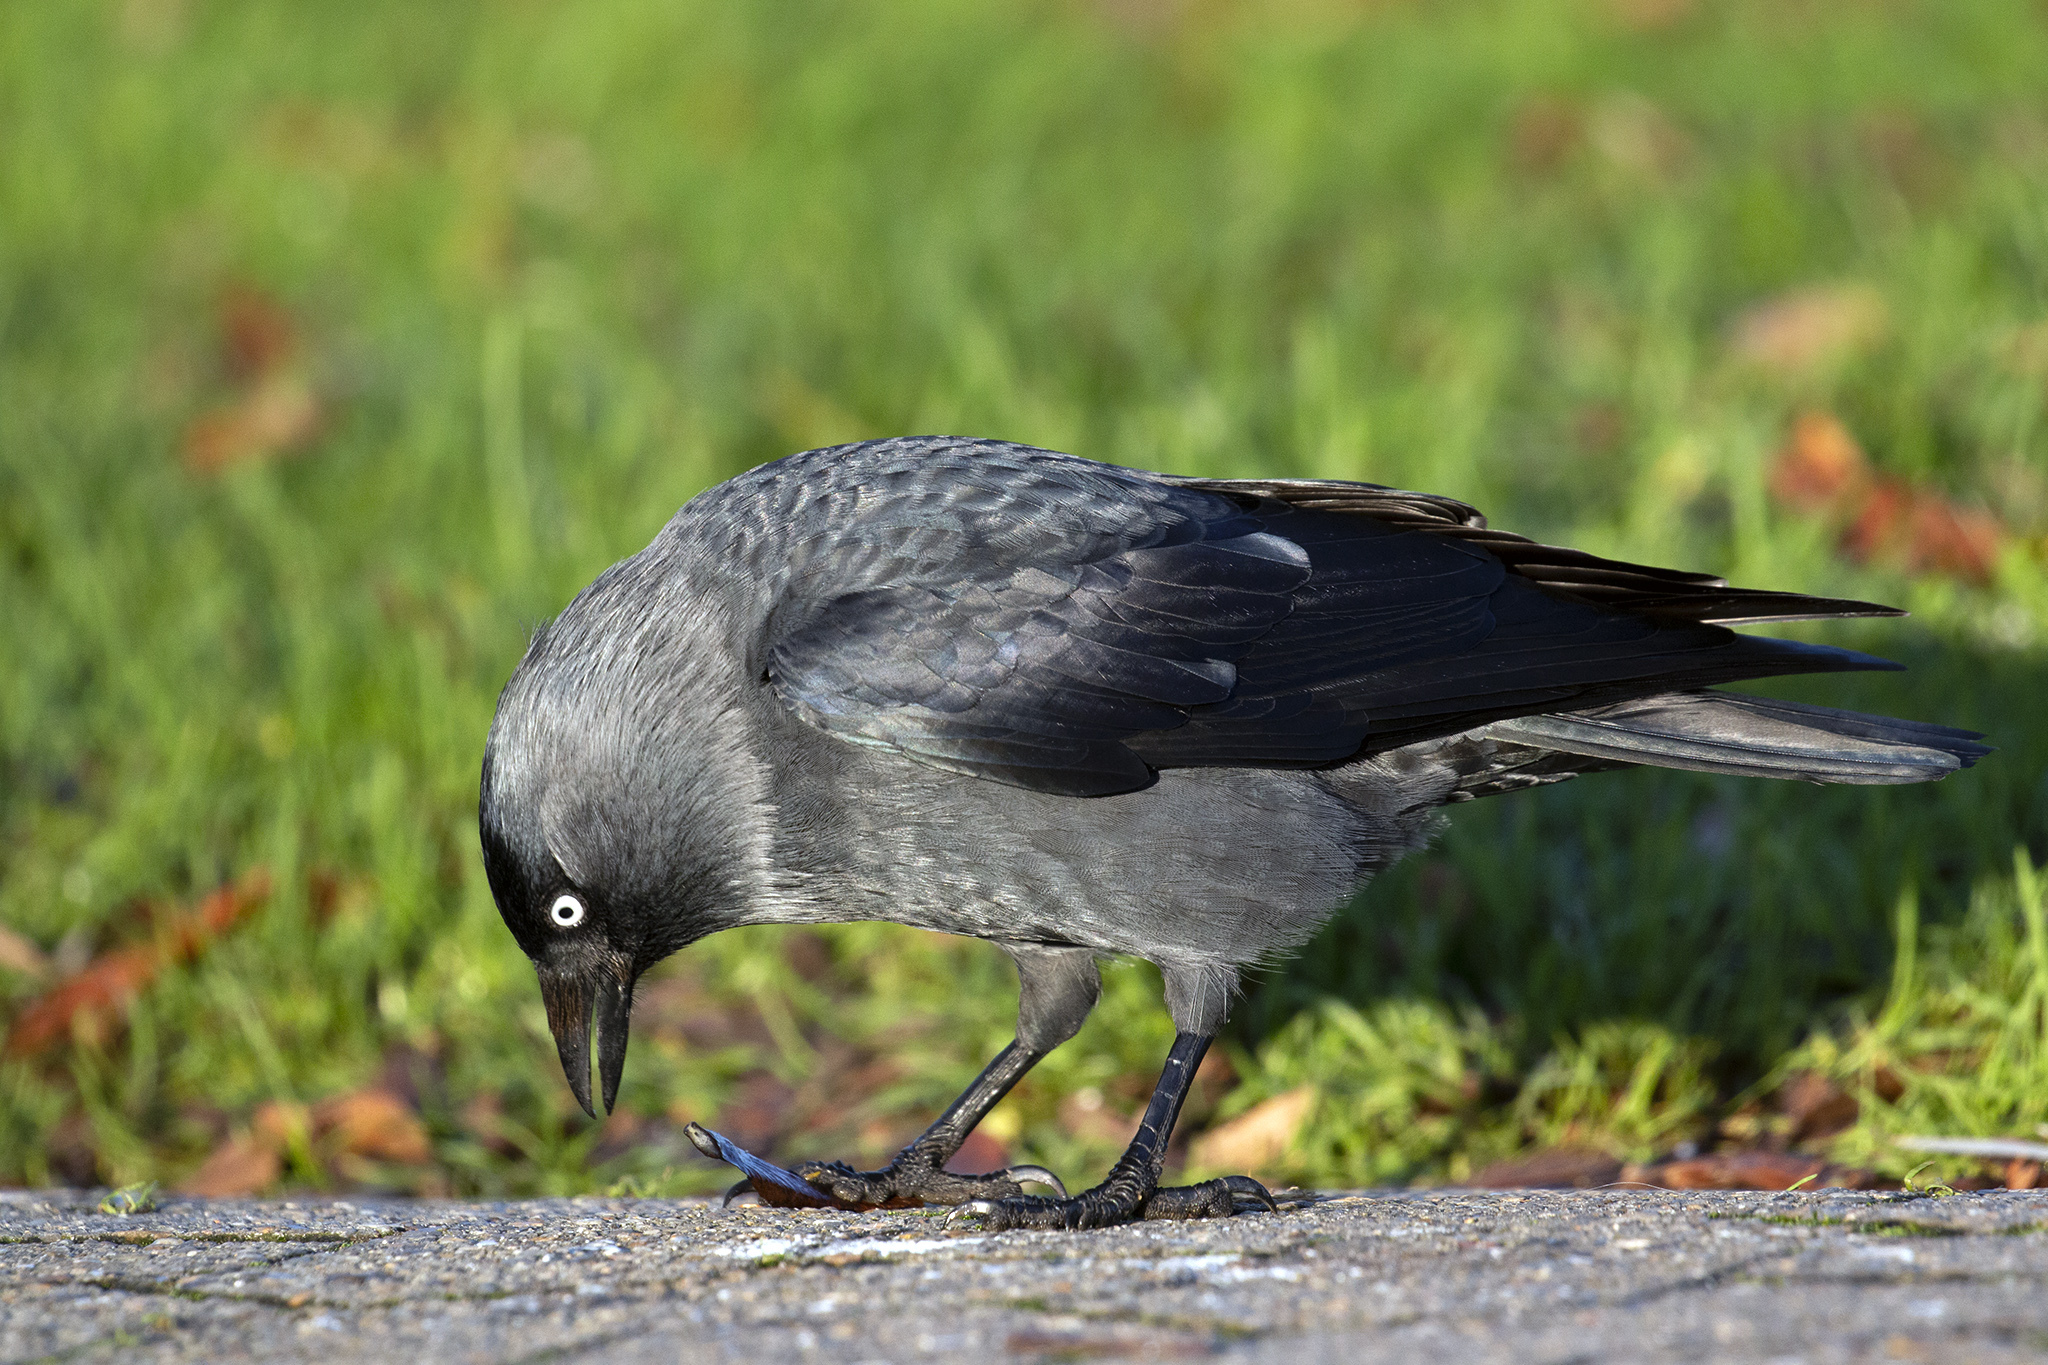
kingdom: Animalia
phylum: Chordata
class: Aves
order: Passeriformes
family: Corvidae
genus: Coloeus
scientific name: Coloeus monedula
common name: Western jackdaw
